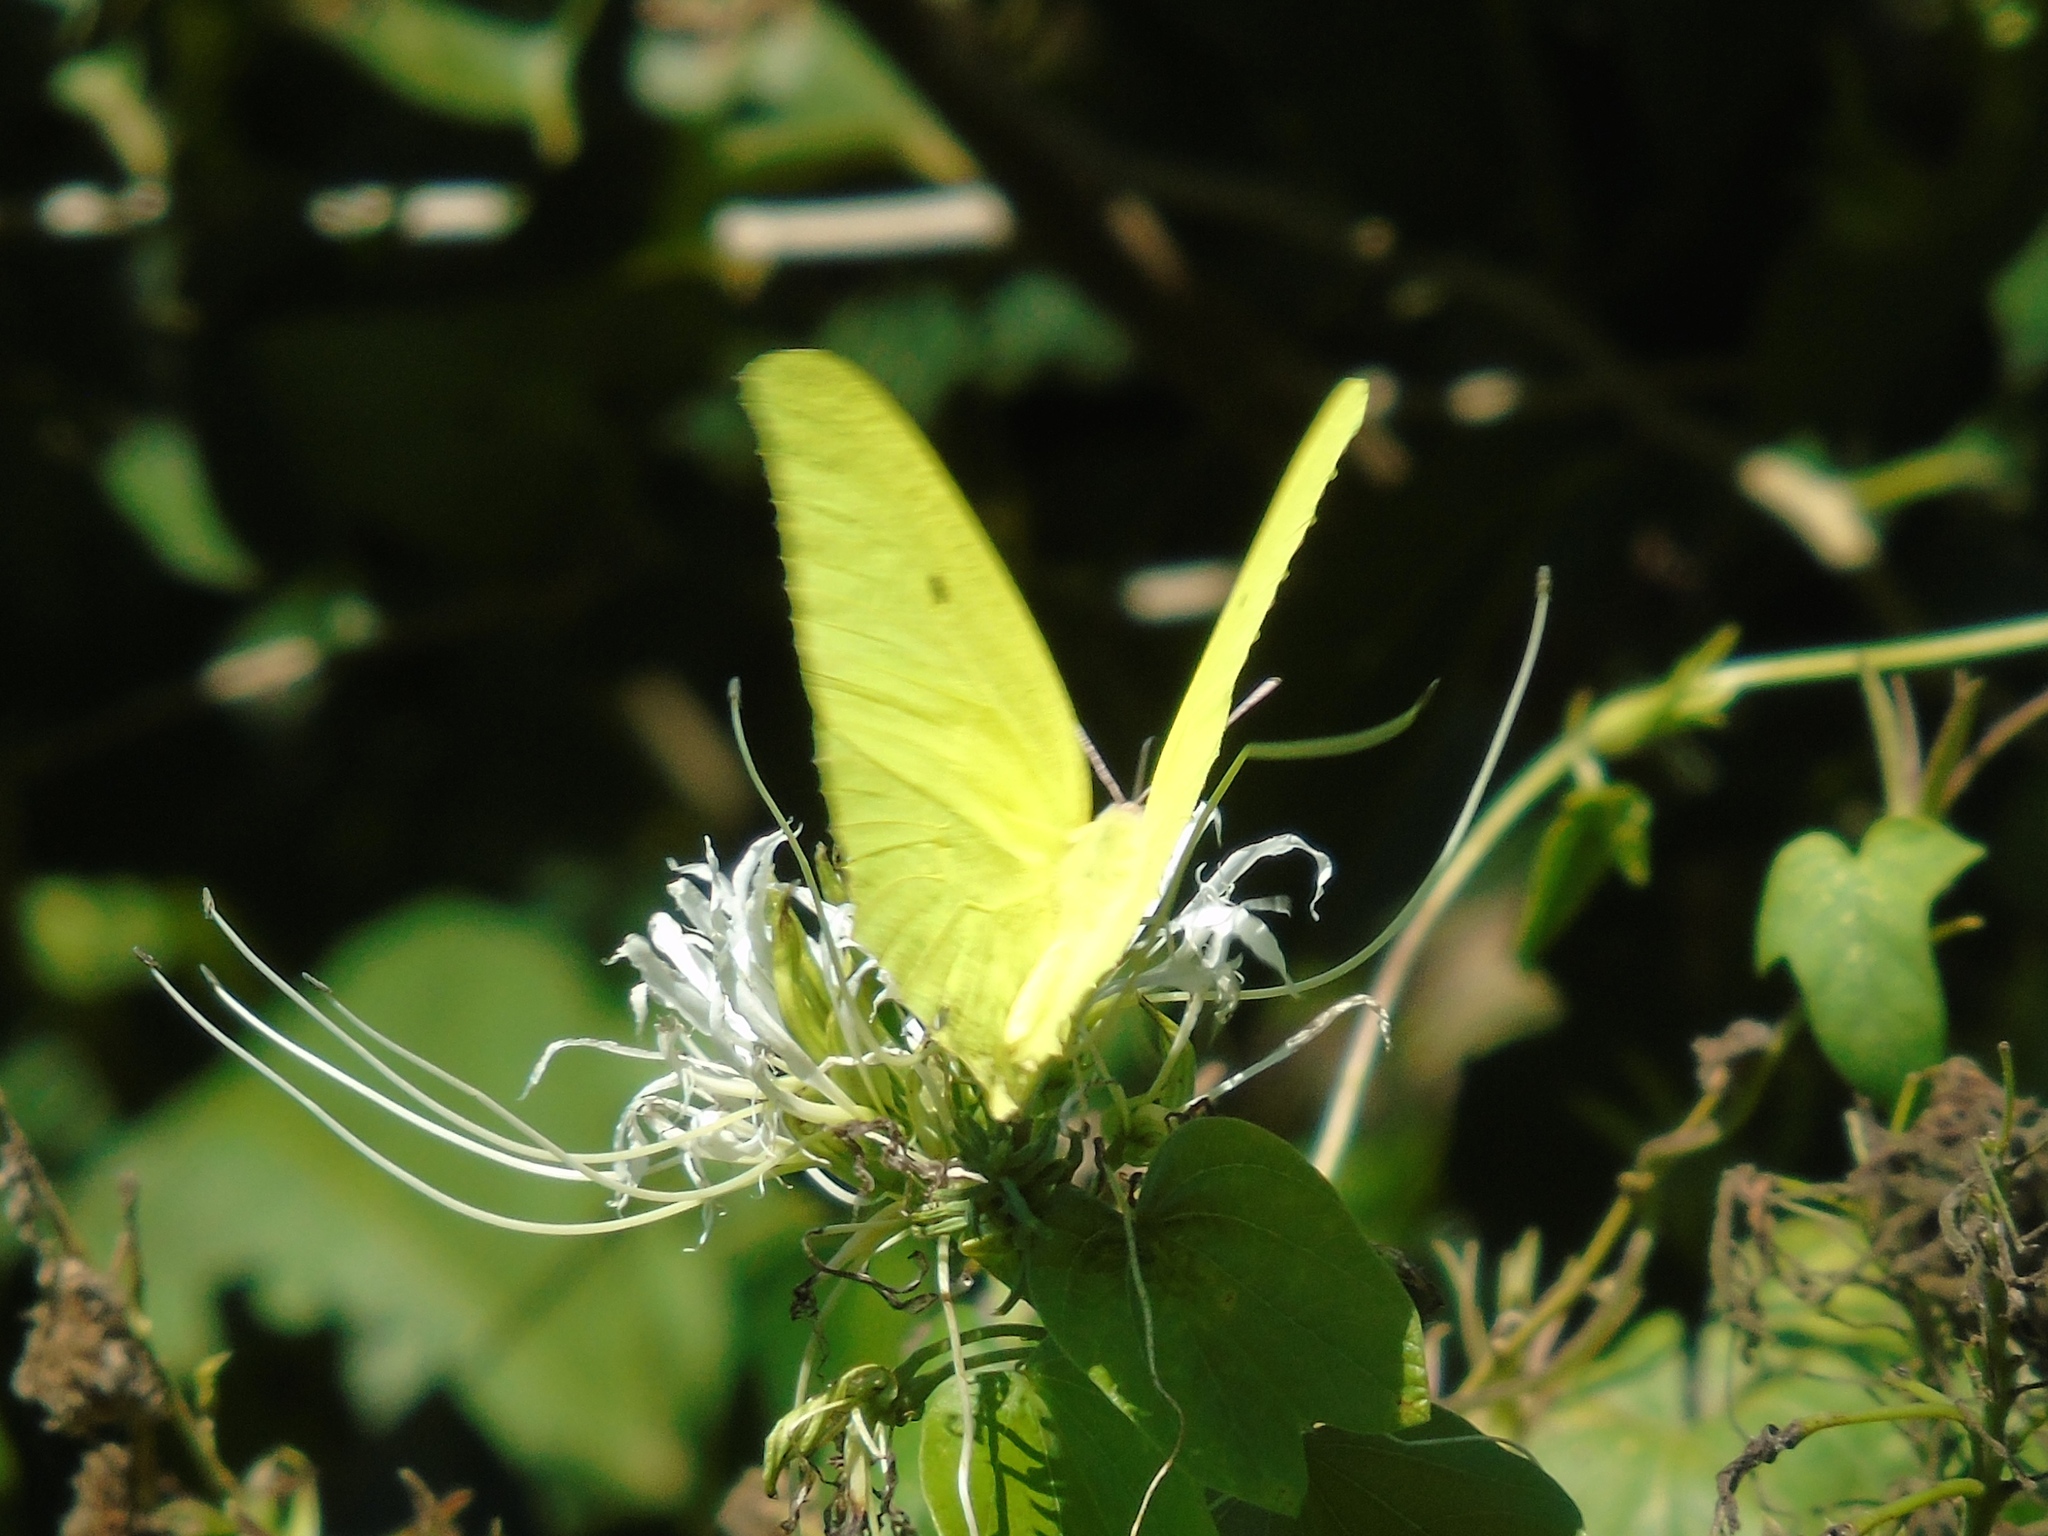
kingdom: Animalia
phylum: Arthropoda
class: Insecta
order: Lepidoptera
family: Pieridae
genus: Anteos
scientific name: Anteos maerula
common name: Angled sulphur
